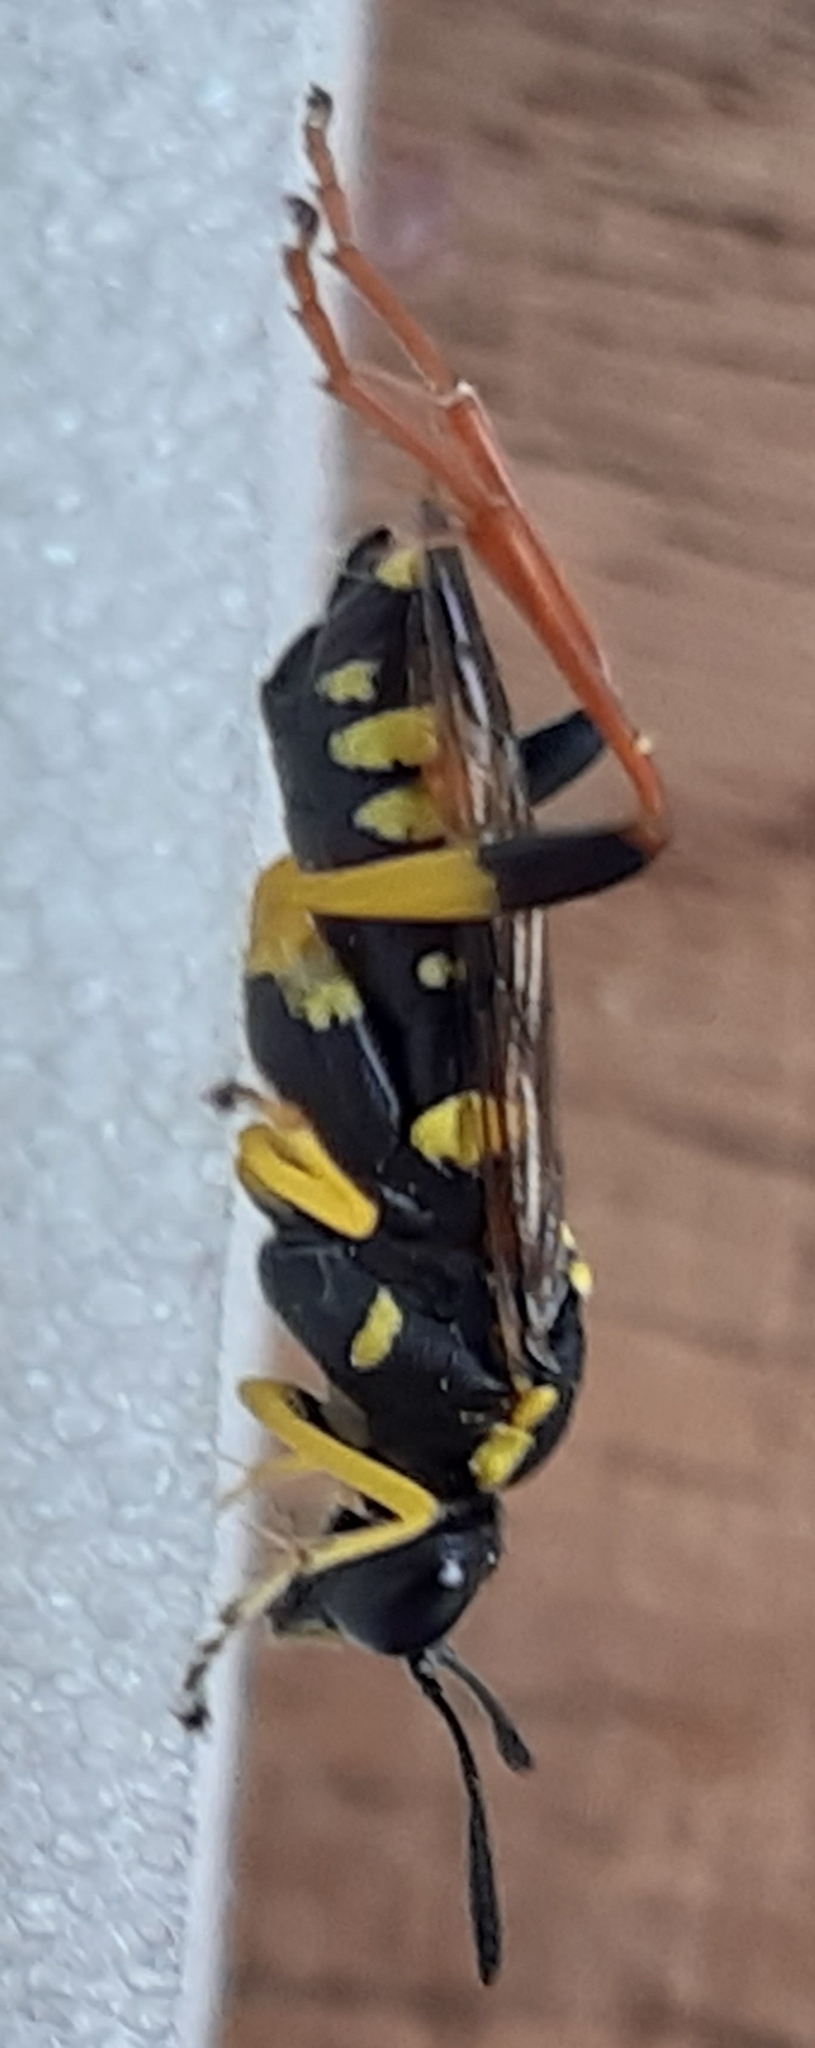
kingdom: Animalia
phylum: Arthropoda
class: Insecta
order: Hymenoptera
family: Tenthredinidae
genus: Macrophya
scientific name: Macrophya postica
